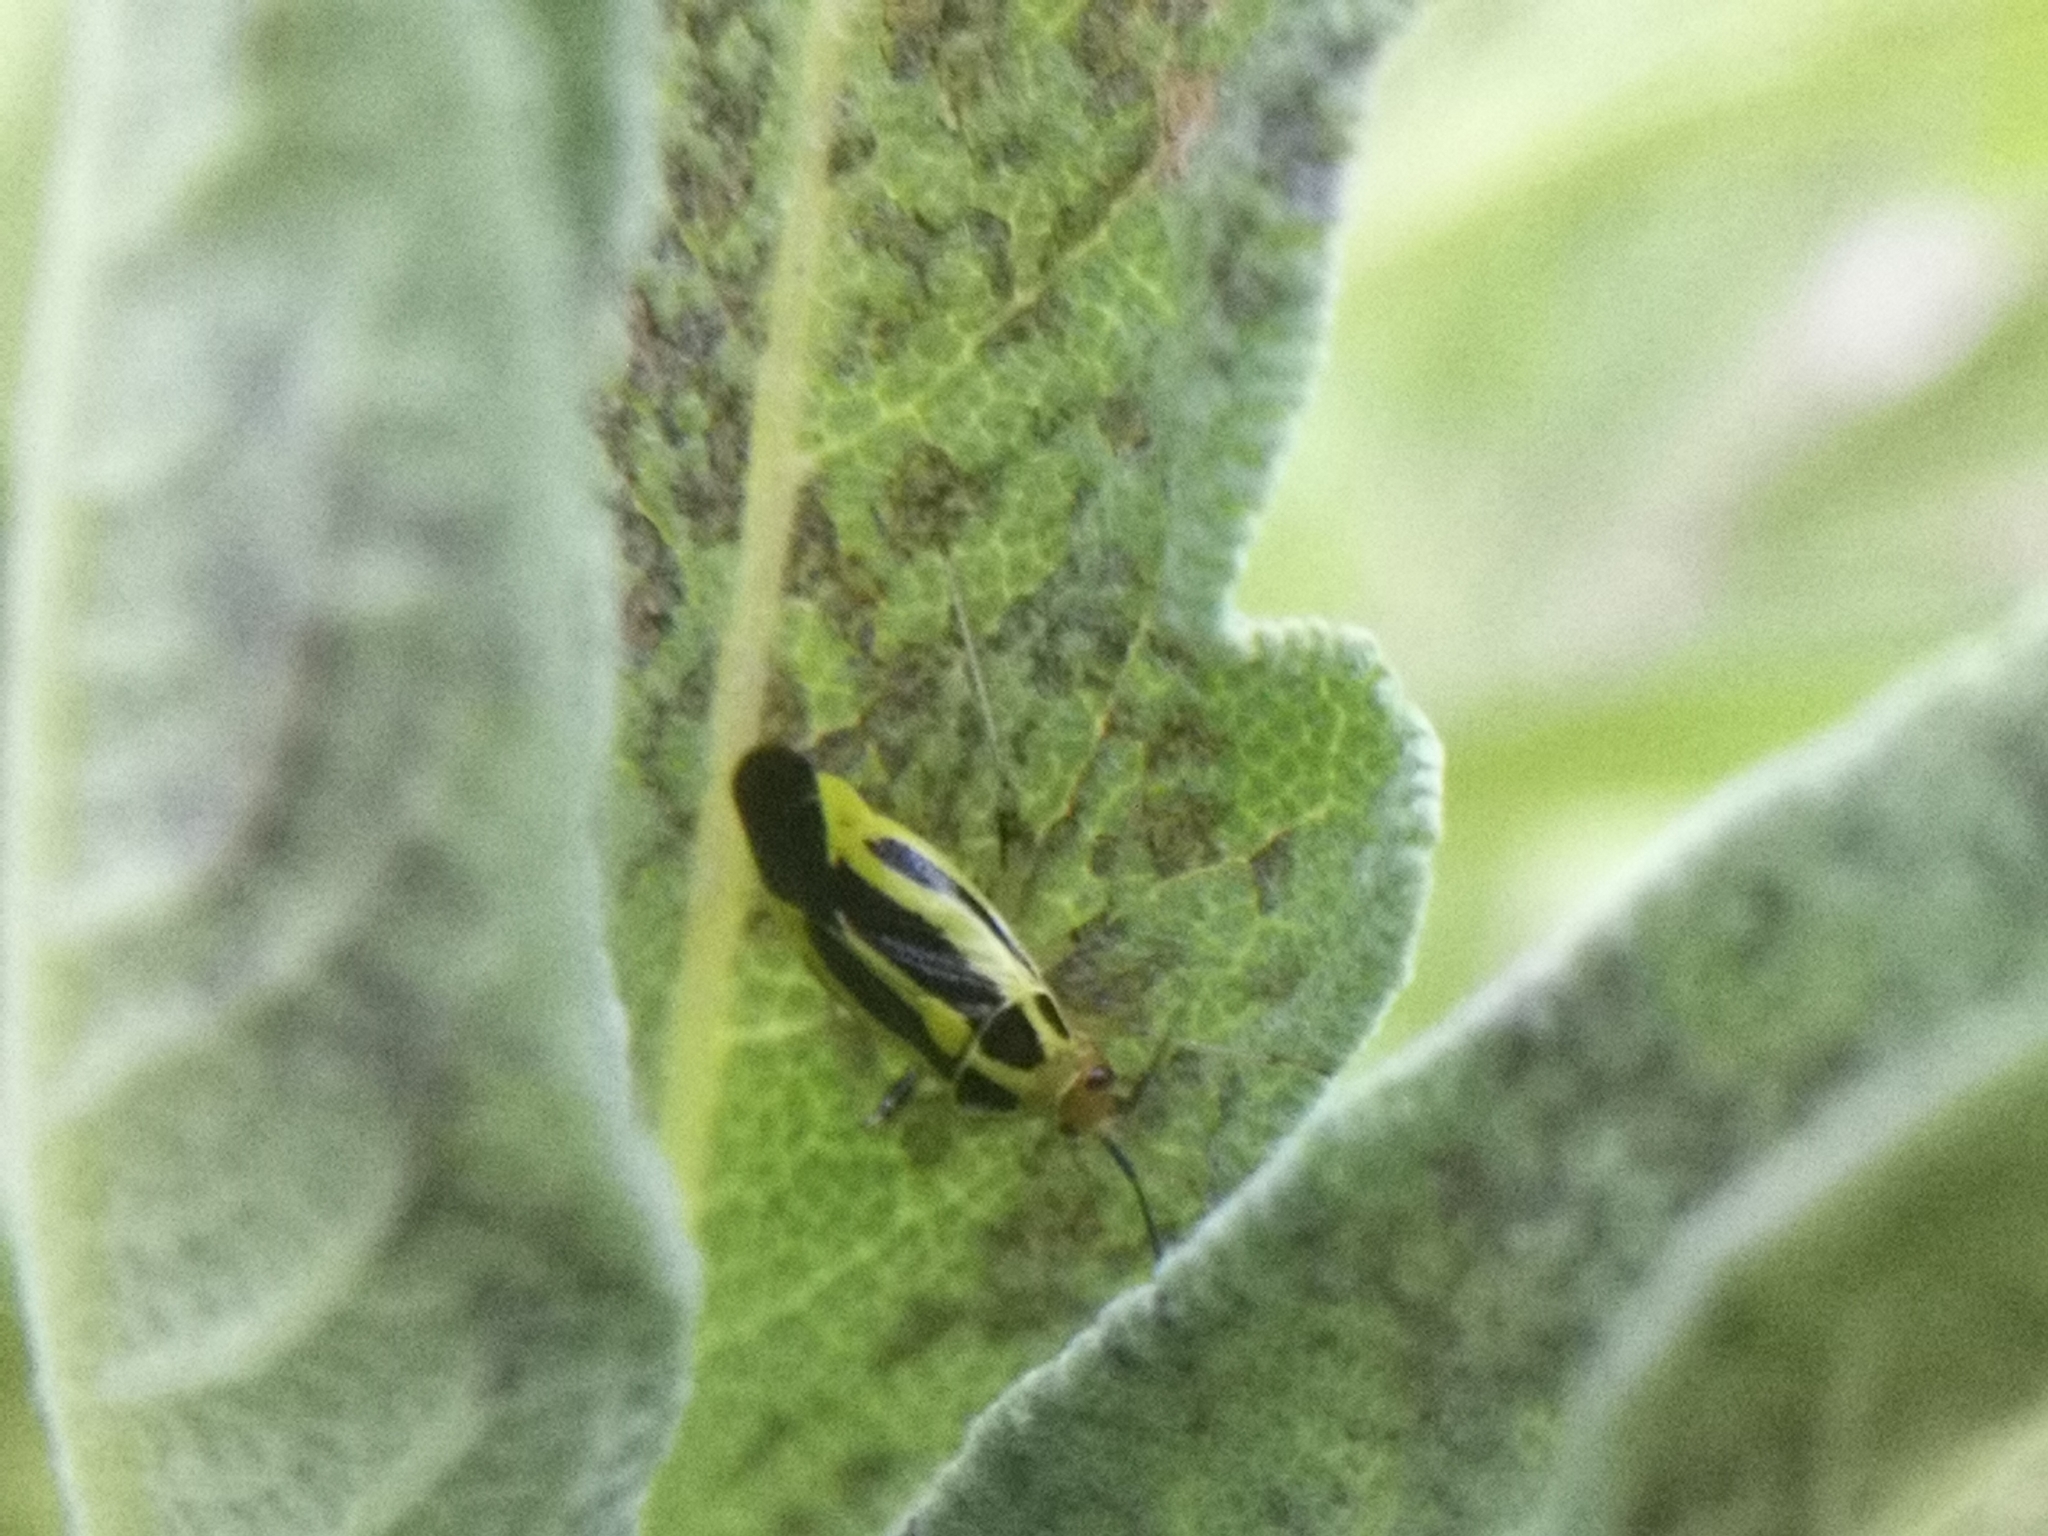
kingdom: Animalia
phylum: Arthropoda
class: Insecta
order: Hemiptera
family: Miridae
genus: Poecilocapsus
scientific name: Poecilocapsus lineatus
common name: Four-lined plant bug
